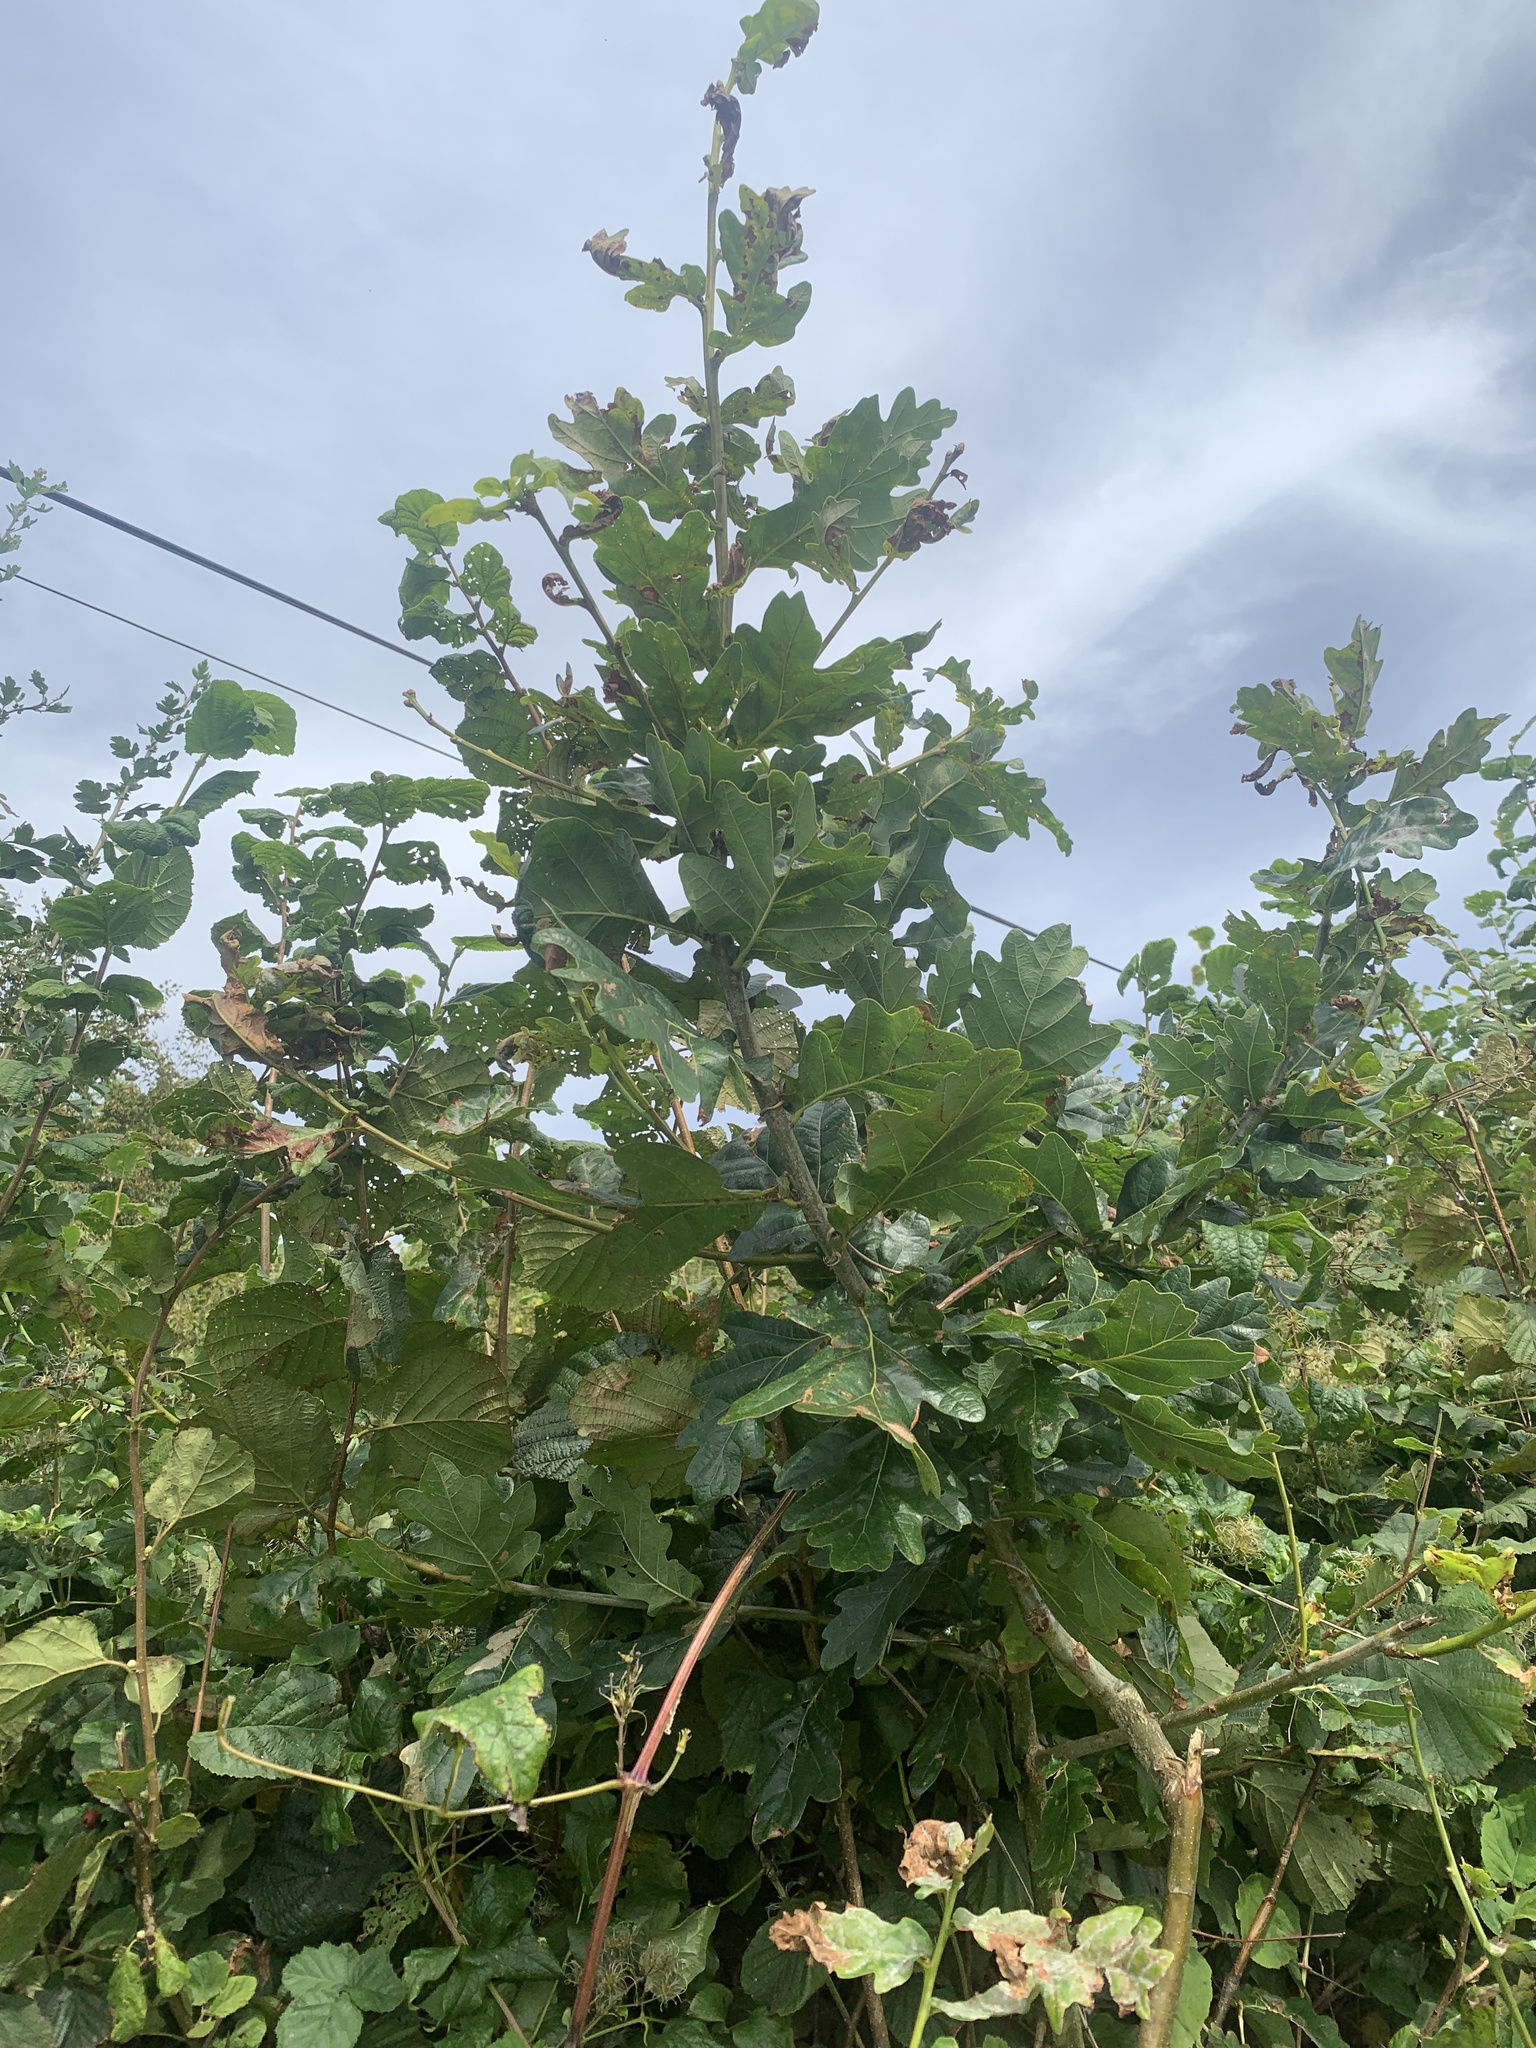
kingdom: Plantae
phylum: Tracheophyta
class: Magnoliopsida
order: Fagales
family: Fagaceae
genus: Quercus
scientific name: Quercus robur
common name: Pedunculate oak
